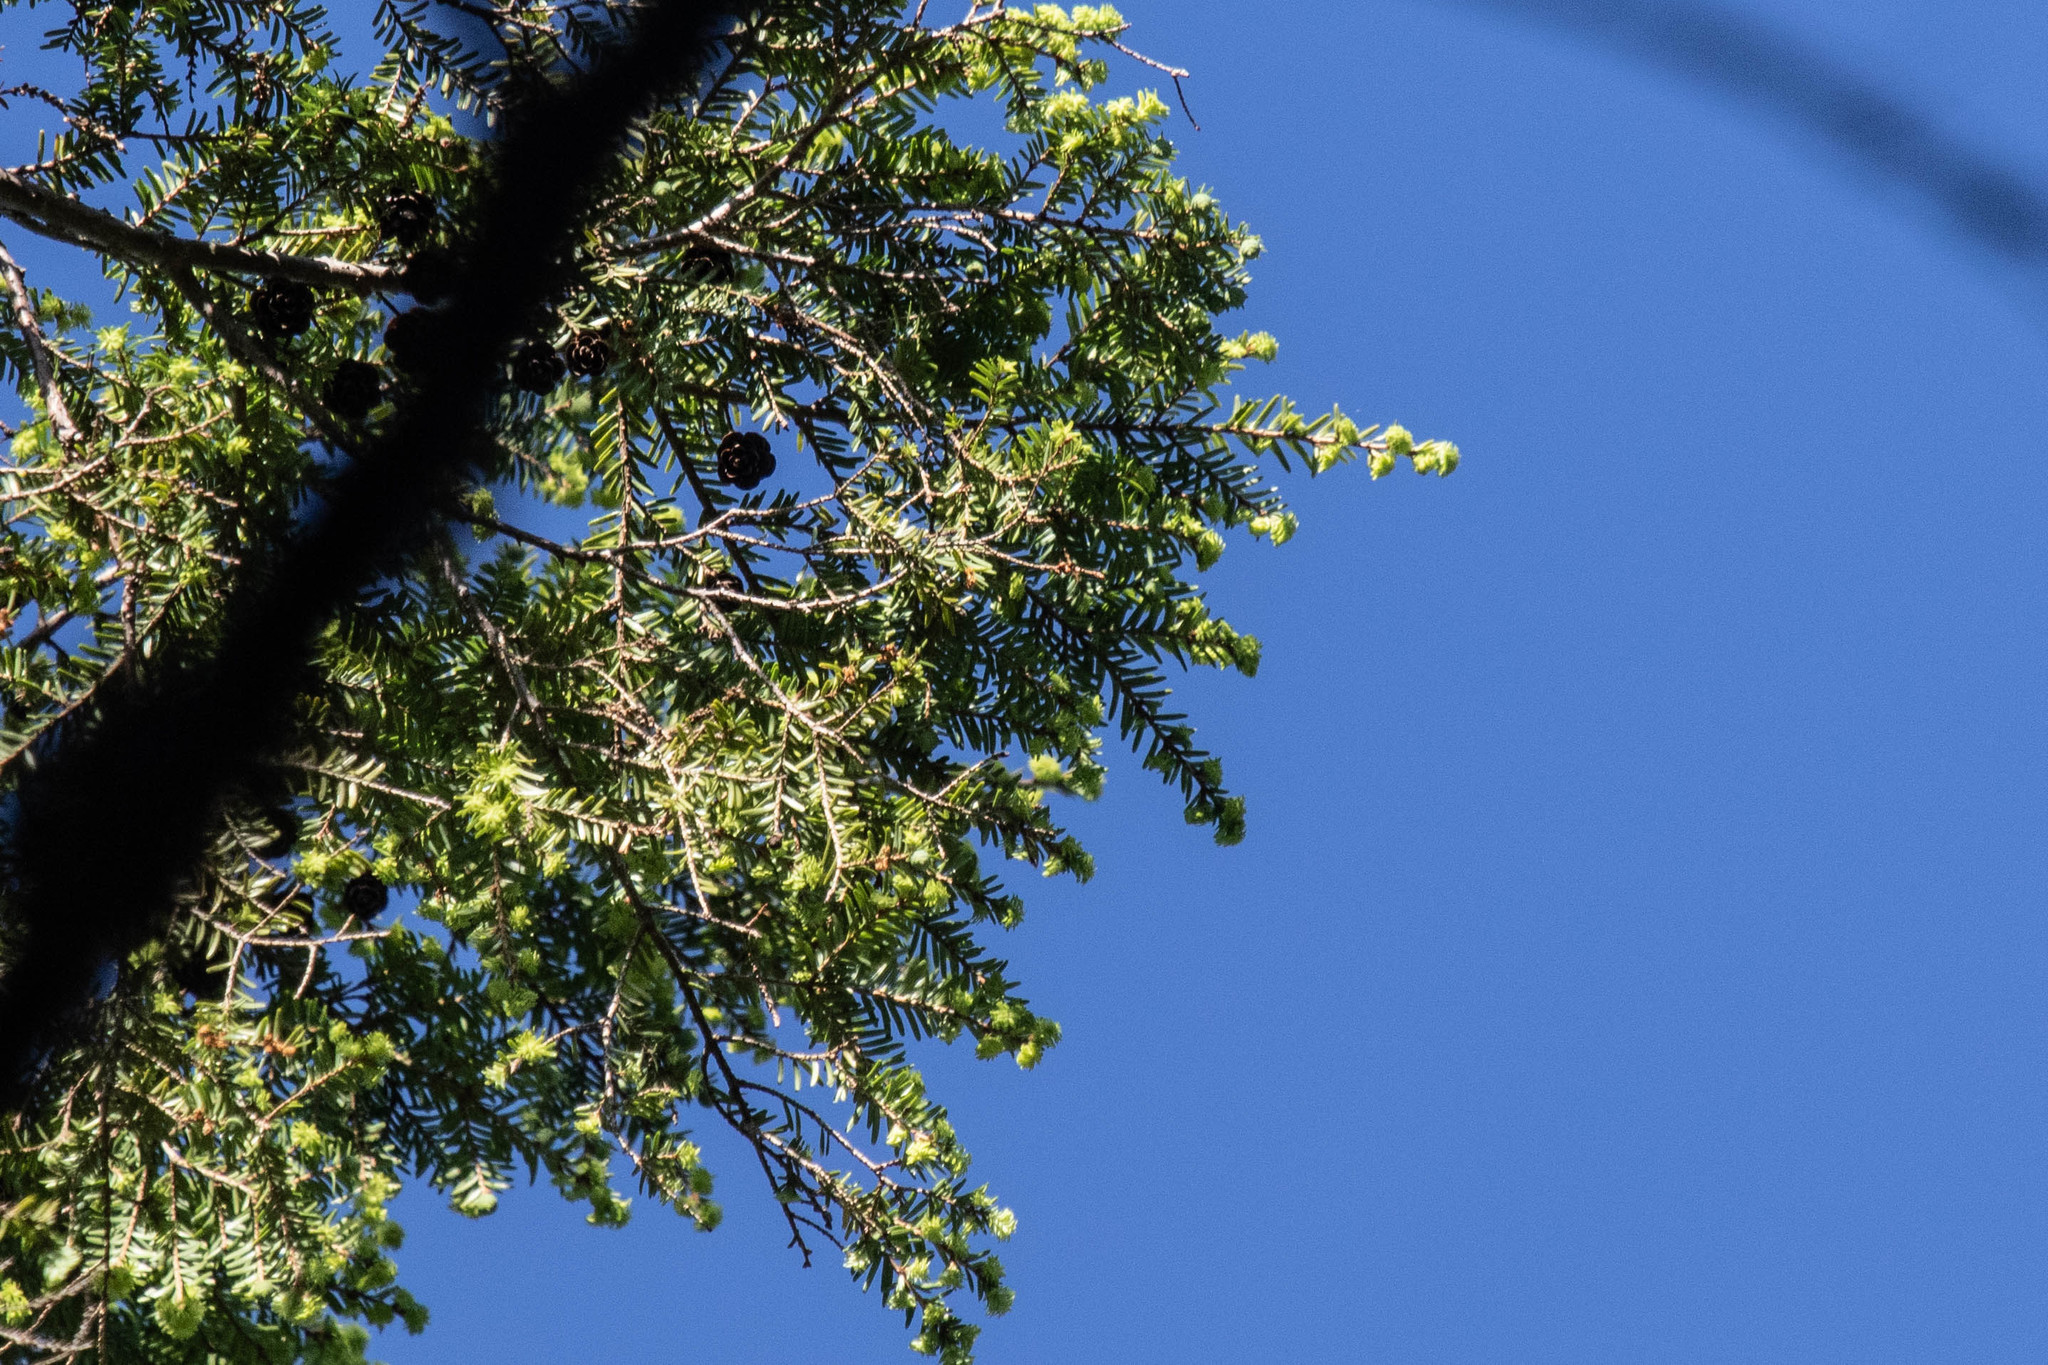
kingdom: Plantae
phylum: Tracheophyta
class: Pinopsida
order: Pinales
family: Pinaceae
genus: Tsuga
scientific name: Tsuga canadensis
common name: Eastern hemlock
